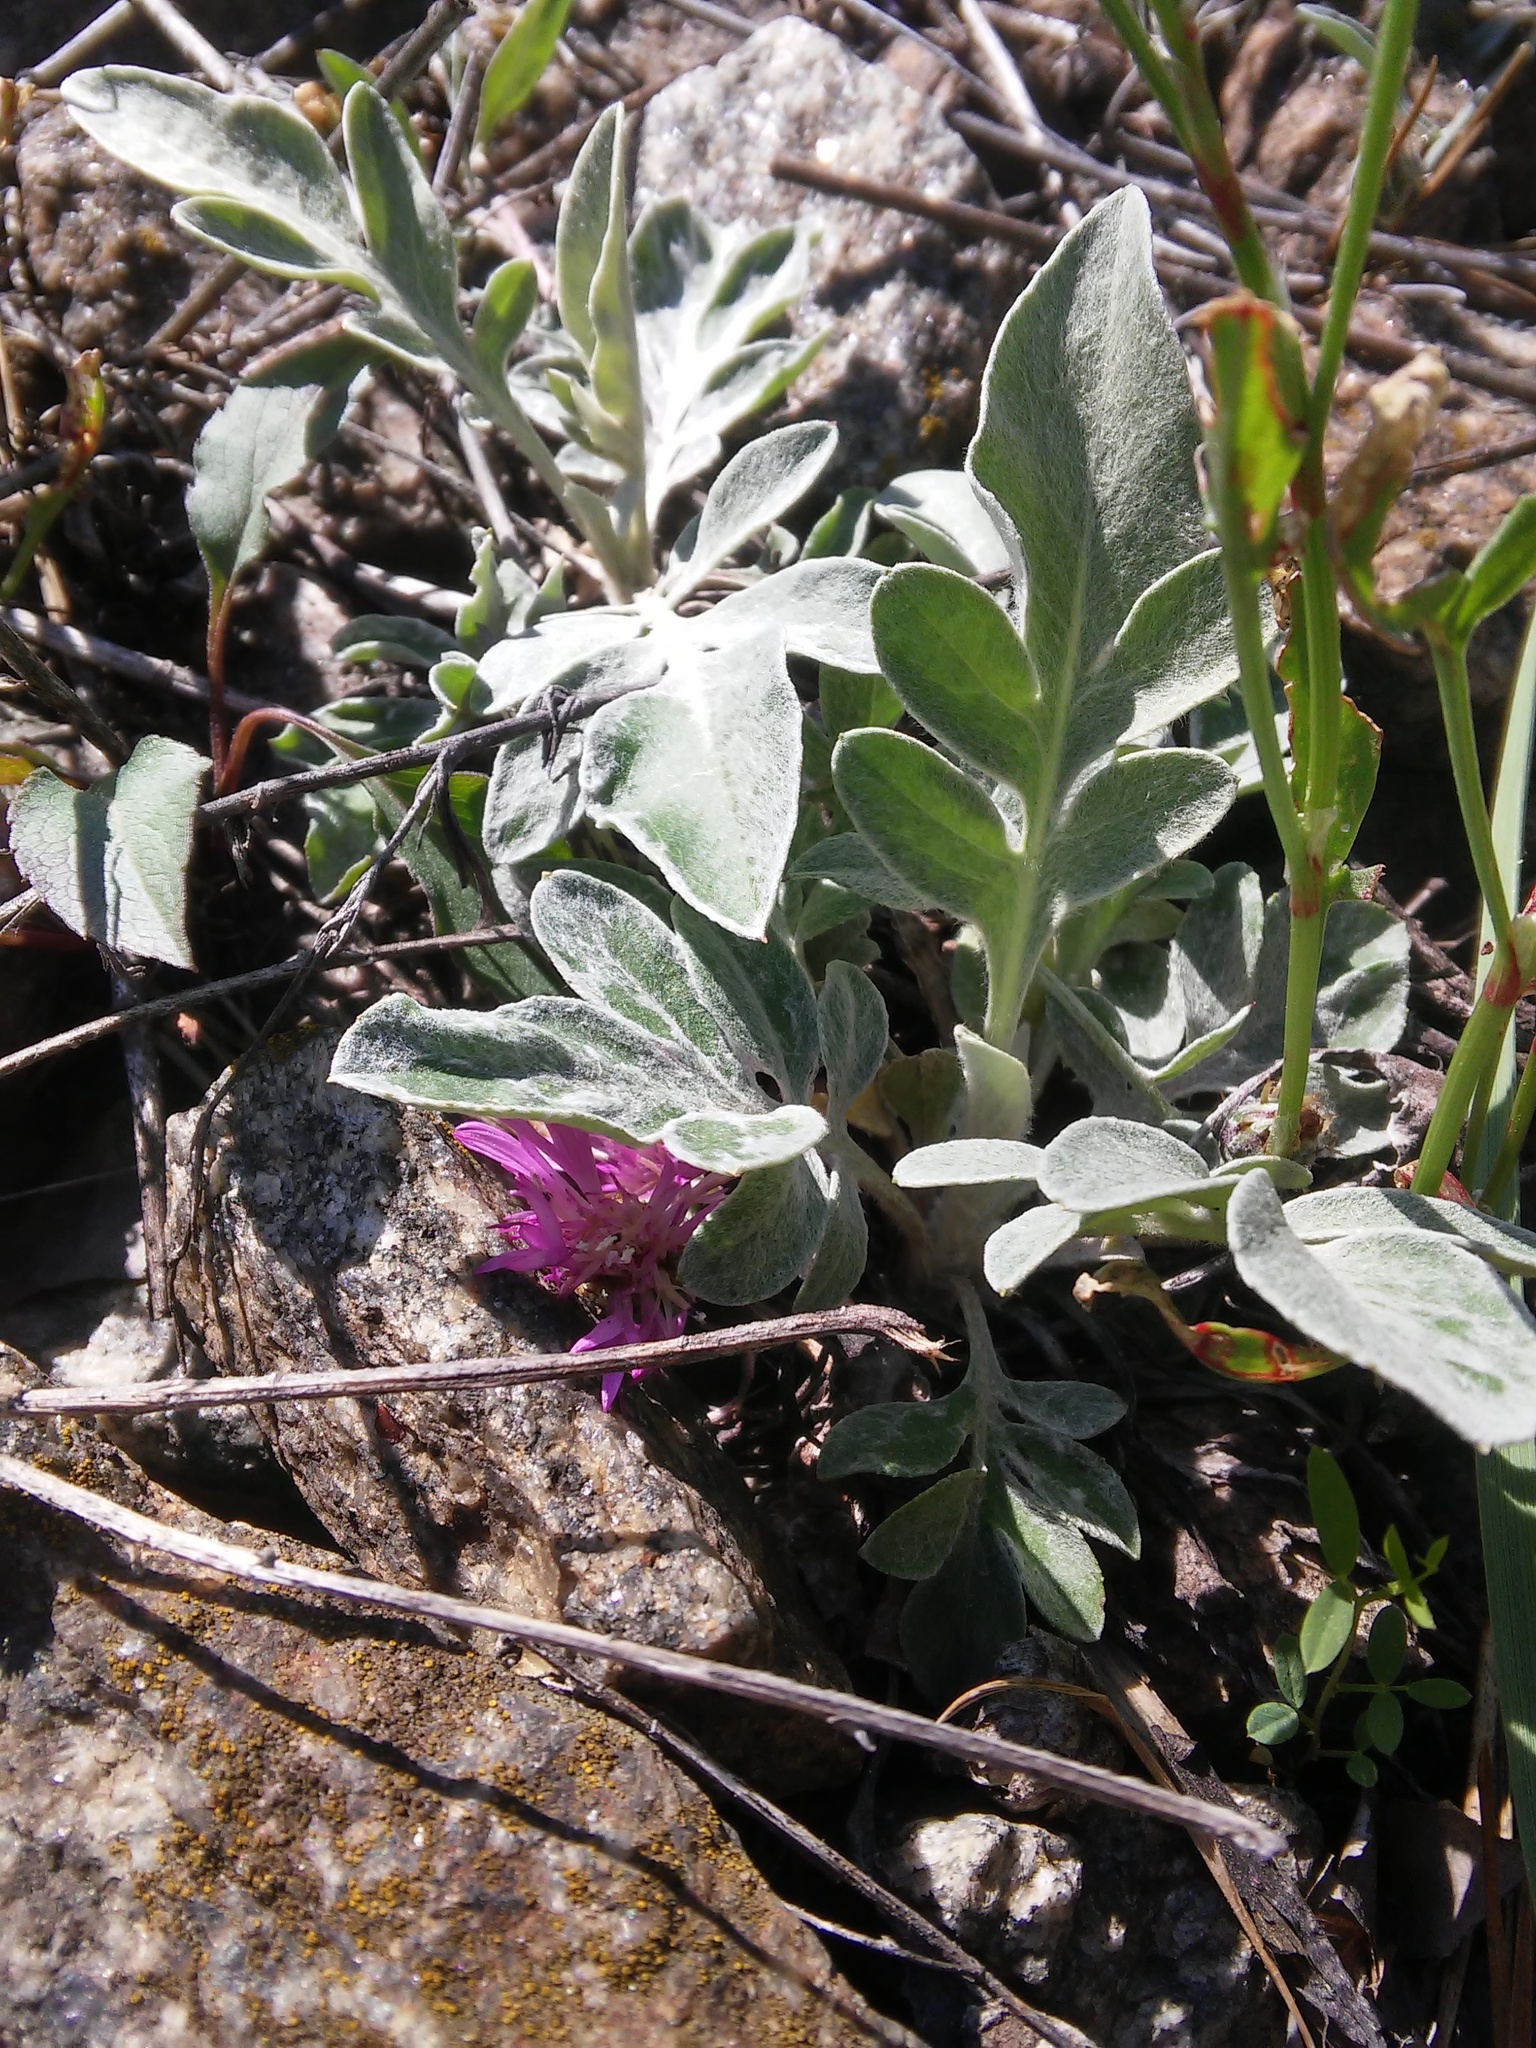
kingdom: Plantae
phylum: Tracheophyta
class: Magnoliopsida
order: Asterales
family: Asteraceae
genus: Psephellus
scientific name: Psephellus sumensis
